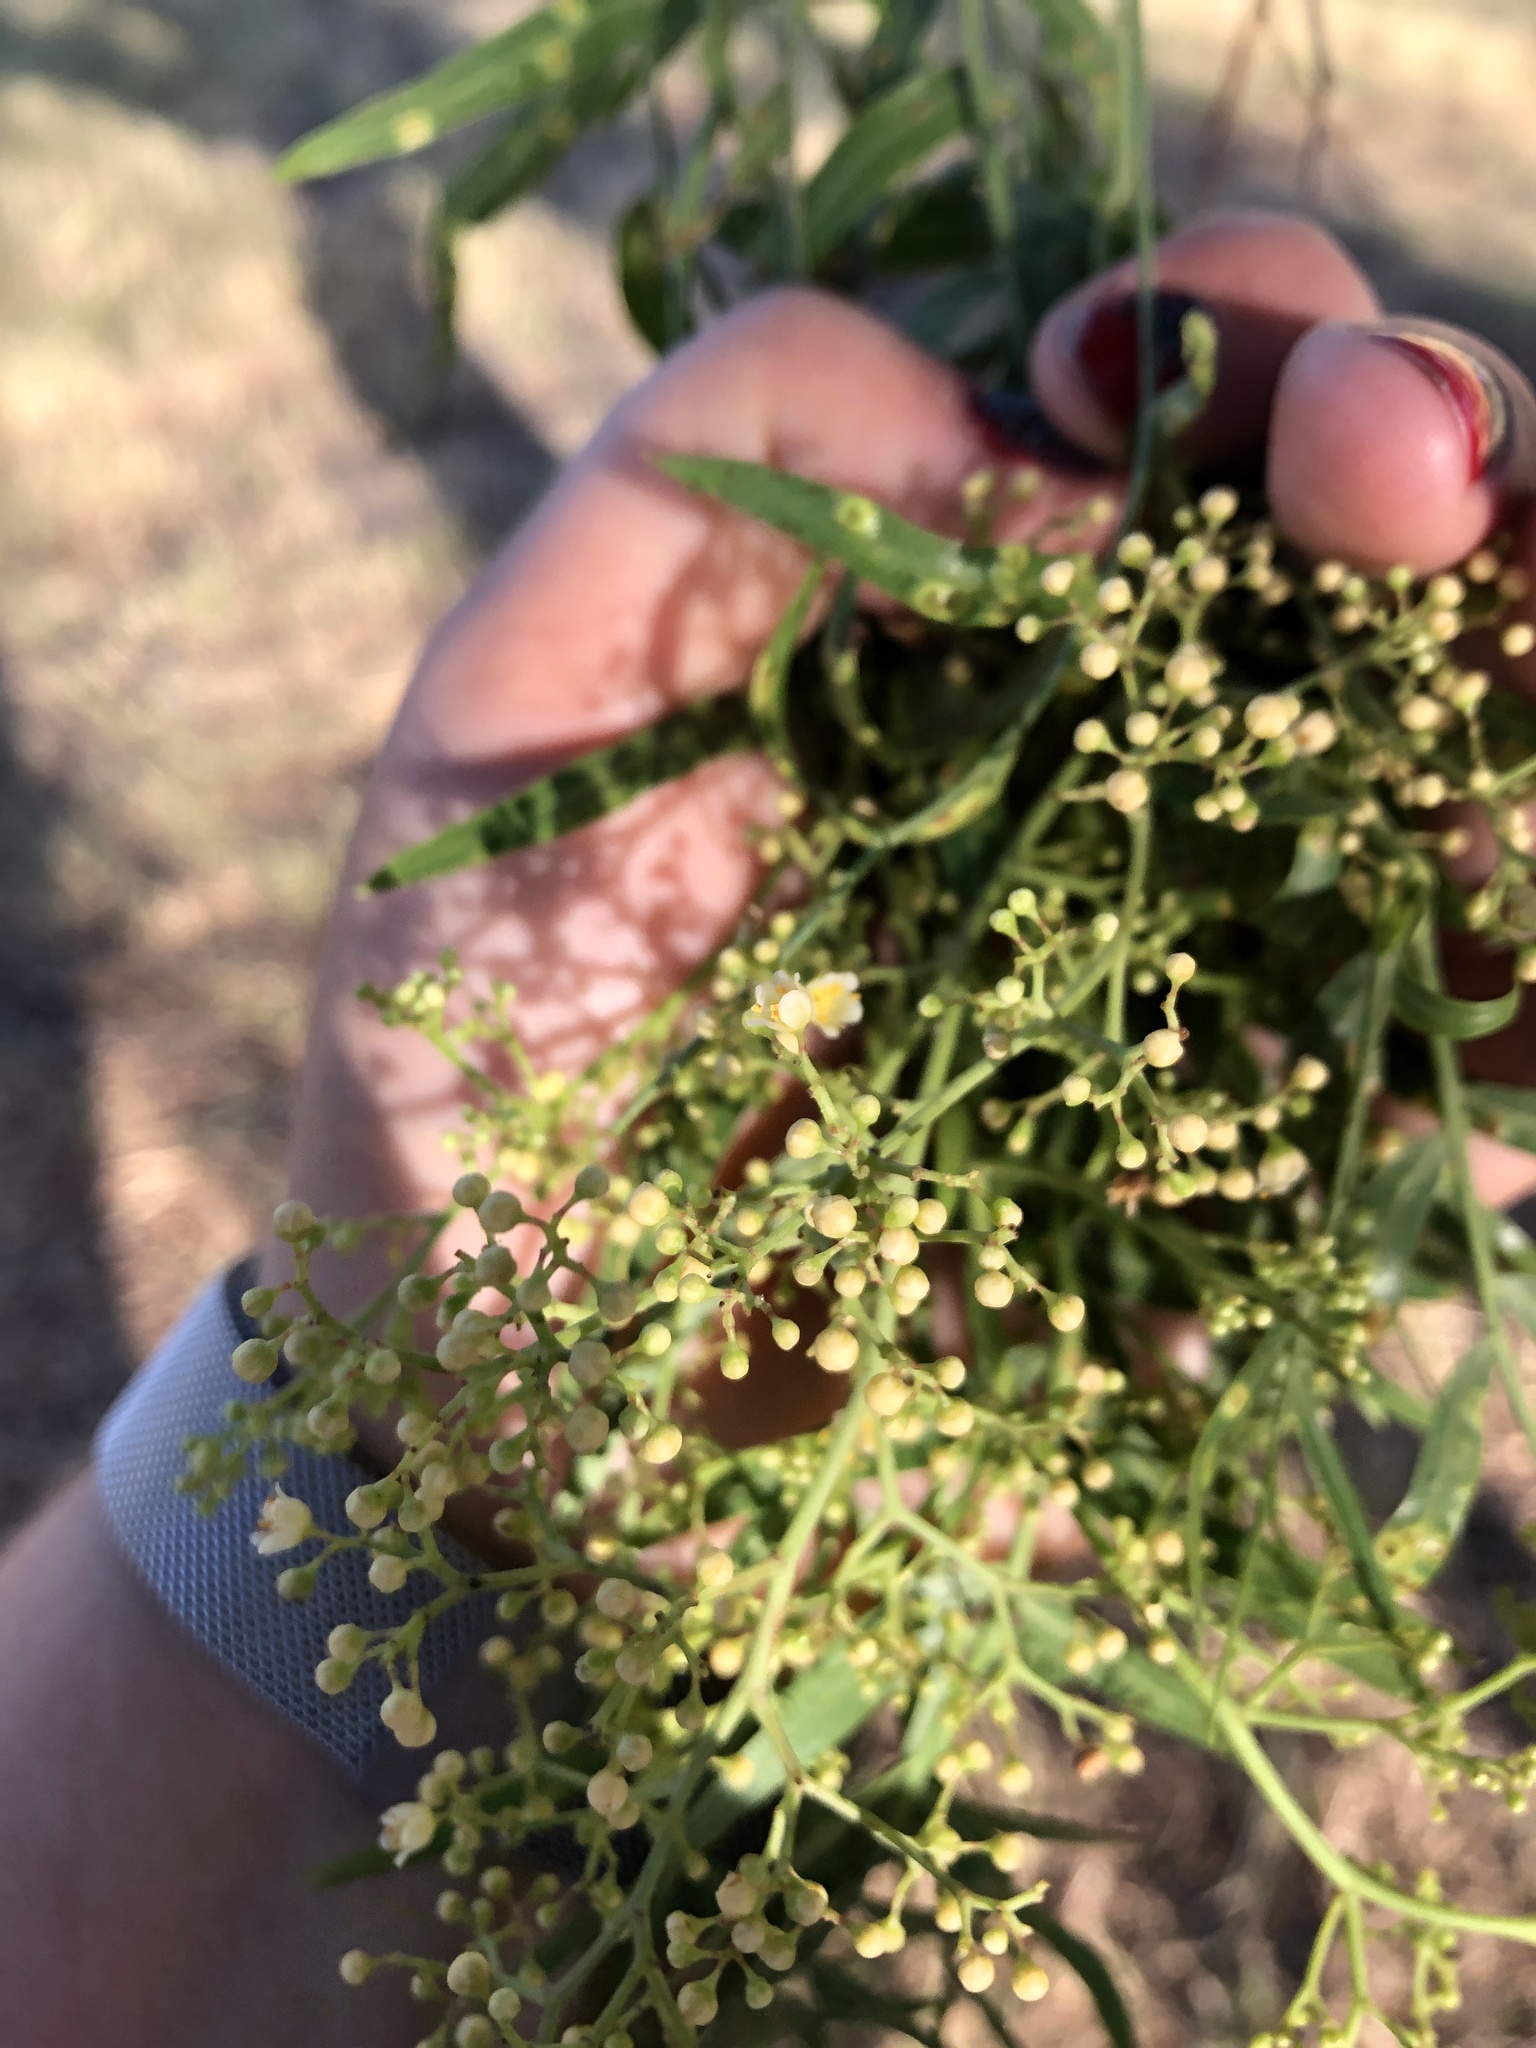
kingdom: Plantae
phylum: Tracheophyta
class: Magnoliopsida
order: Sapindales
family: Anacardiaceae
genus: Schinus
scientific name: Schinus molle
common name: Peruvian peppertree
